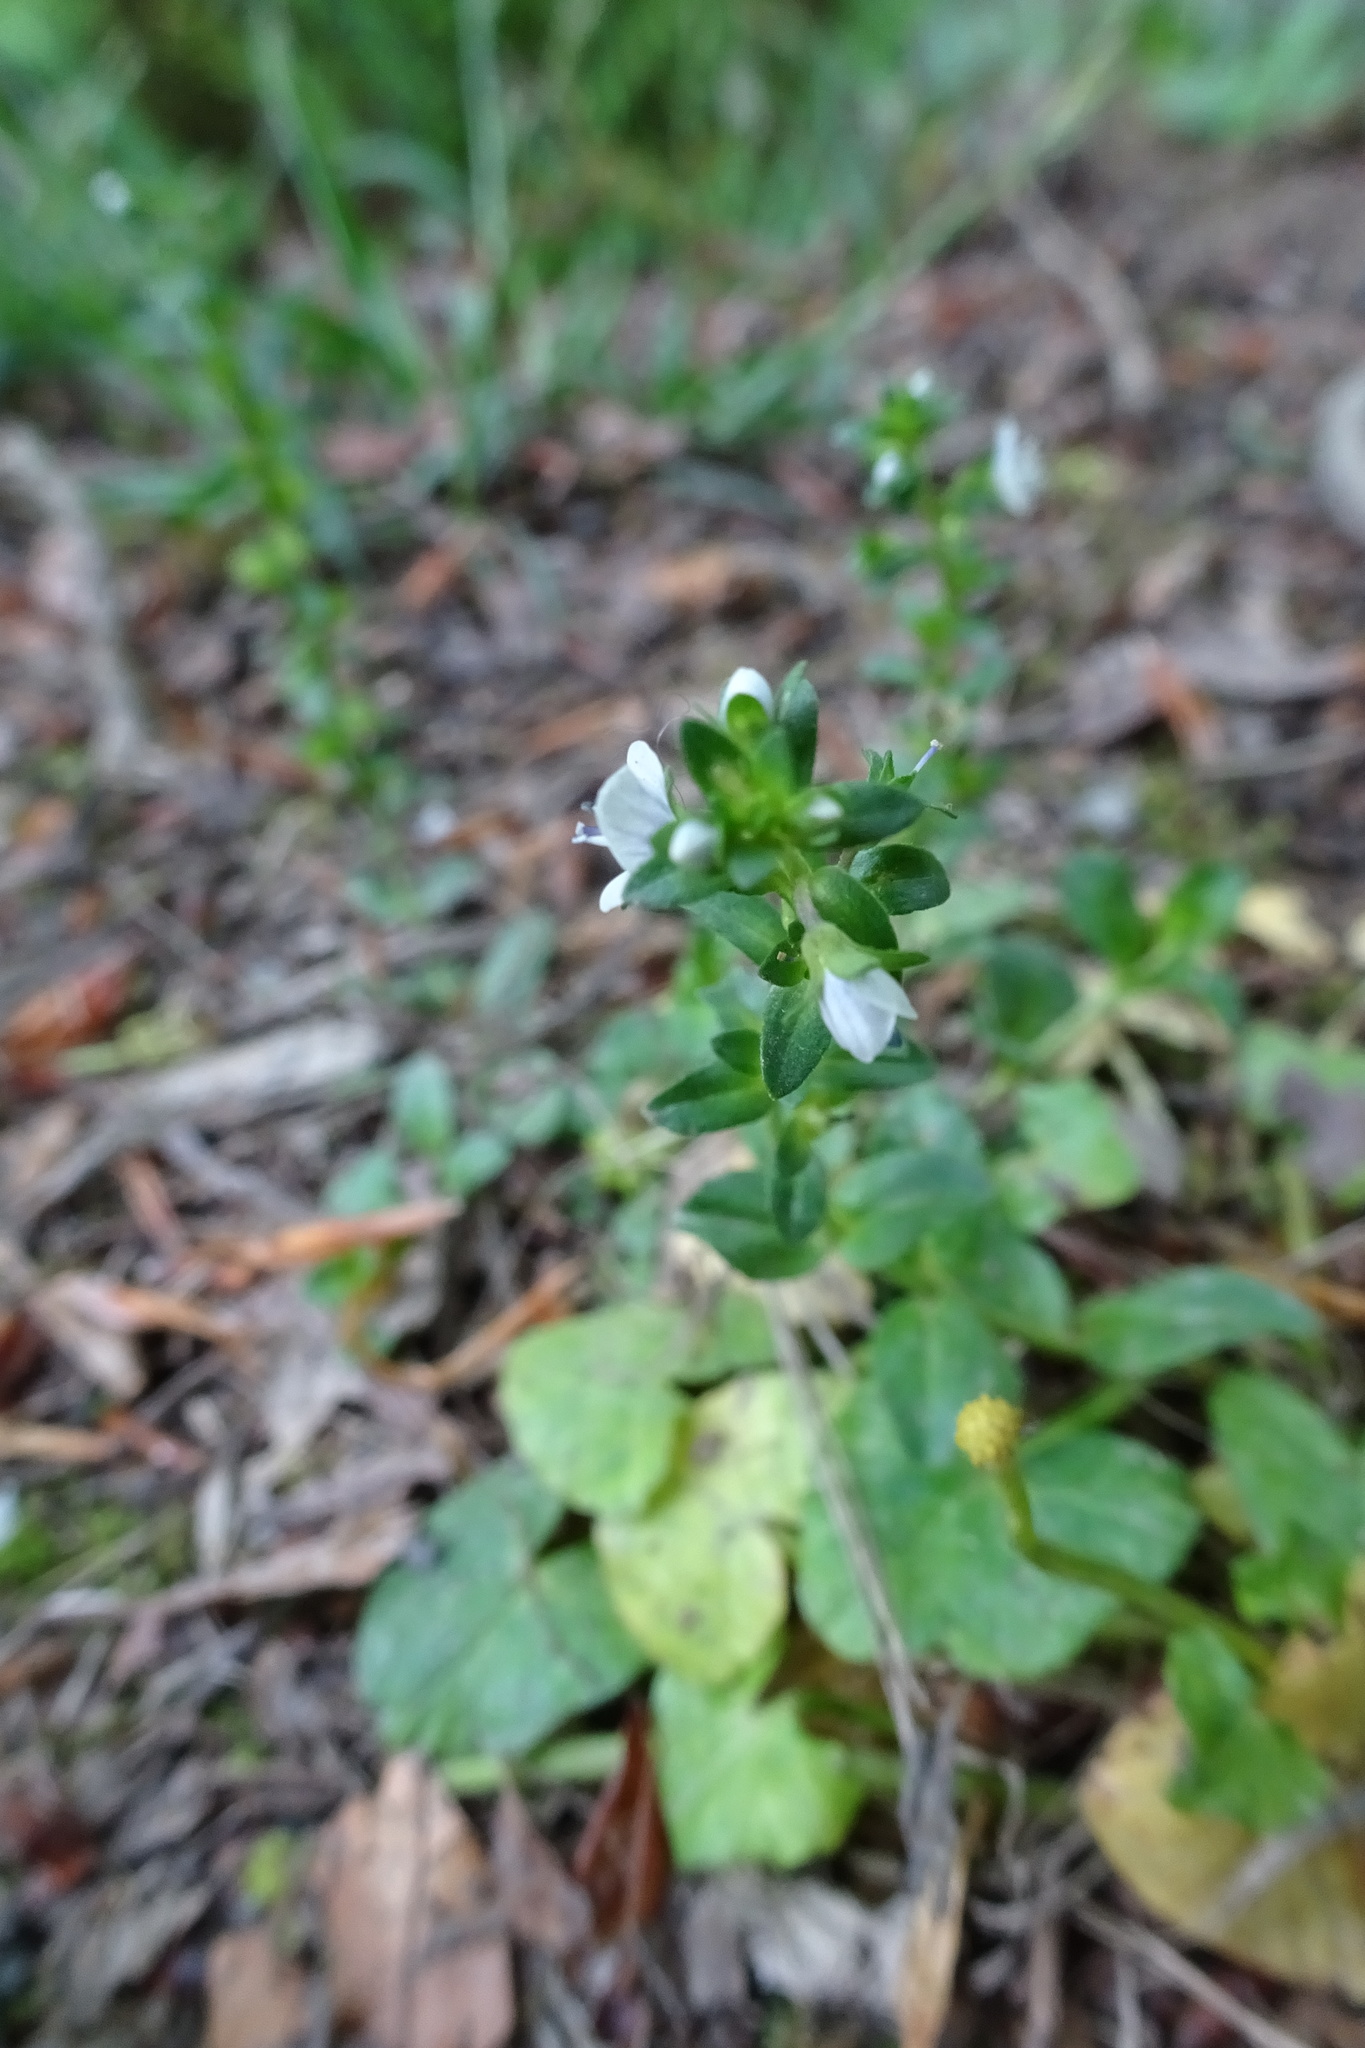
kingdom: Plantae
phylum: Tracheophyta
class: Magnoliopsida
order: Lamiales
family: Plantaginaceae
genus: Veronica
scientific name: Veronica serpyllifolia
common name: Thyme-leaved speedwell
